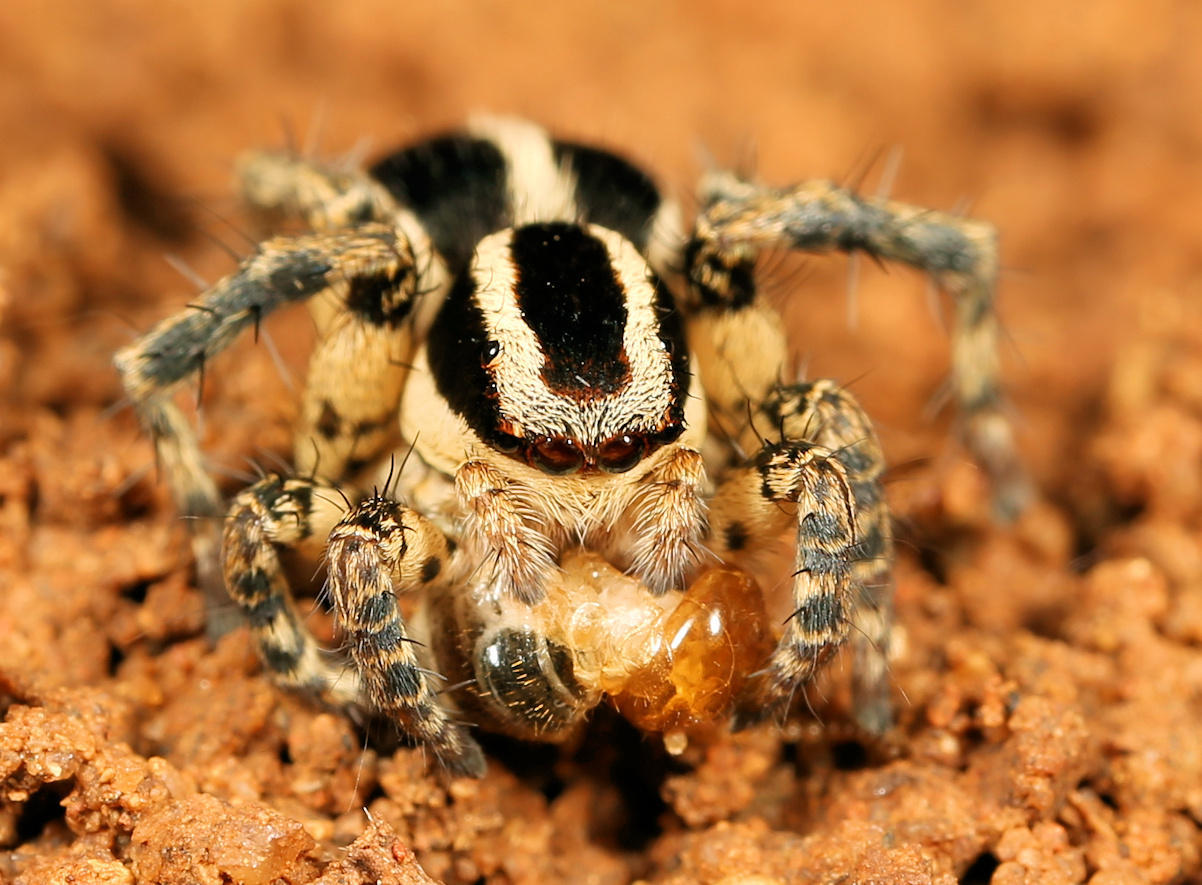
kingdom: Animalia
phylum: Arthropoda
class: Arachnida
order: Araneae
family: Salticidae
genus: Stenaelurillus
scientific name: Stenaelurillus termitophagus
